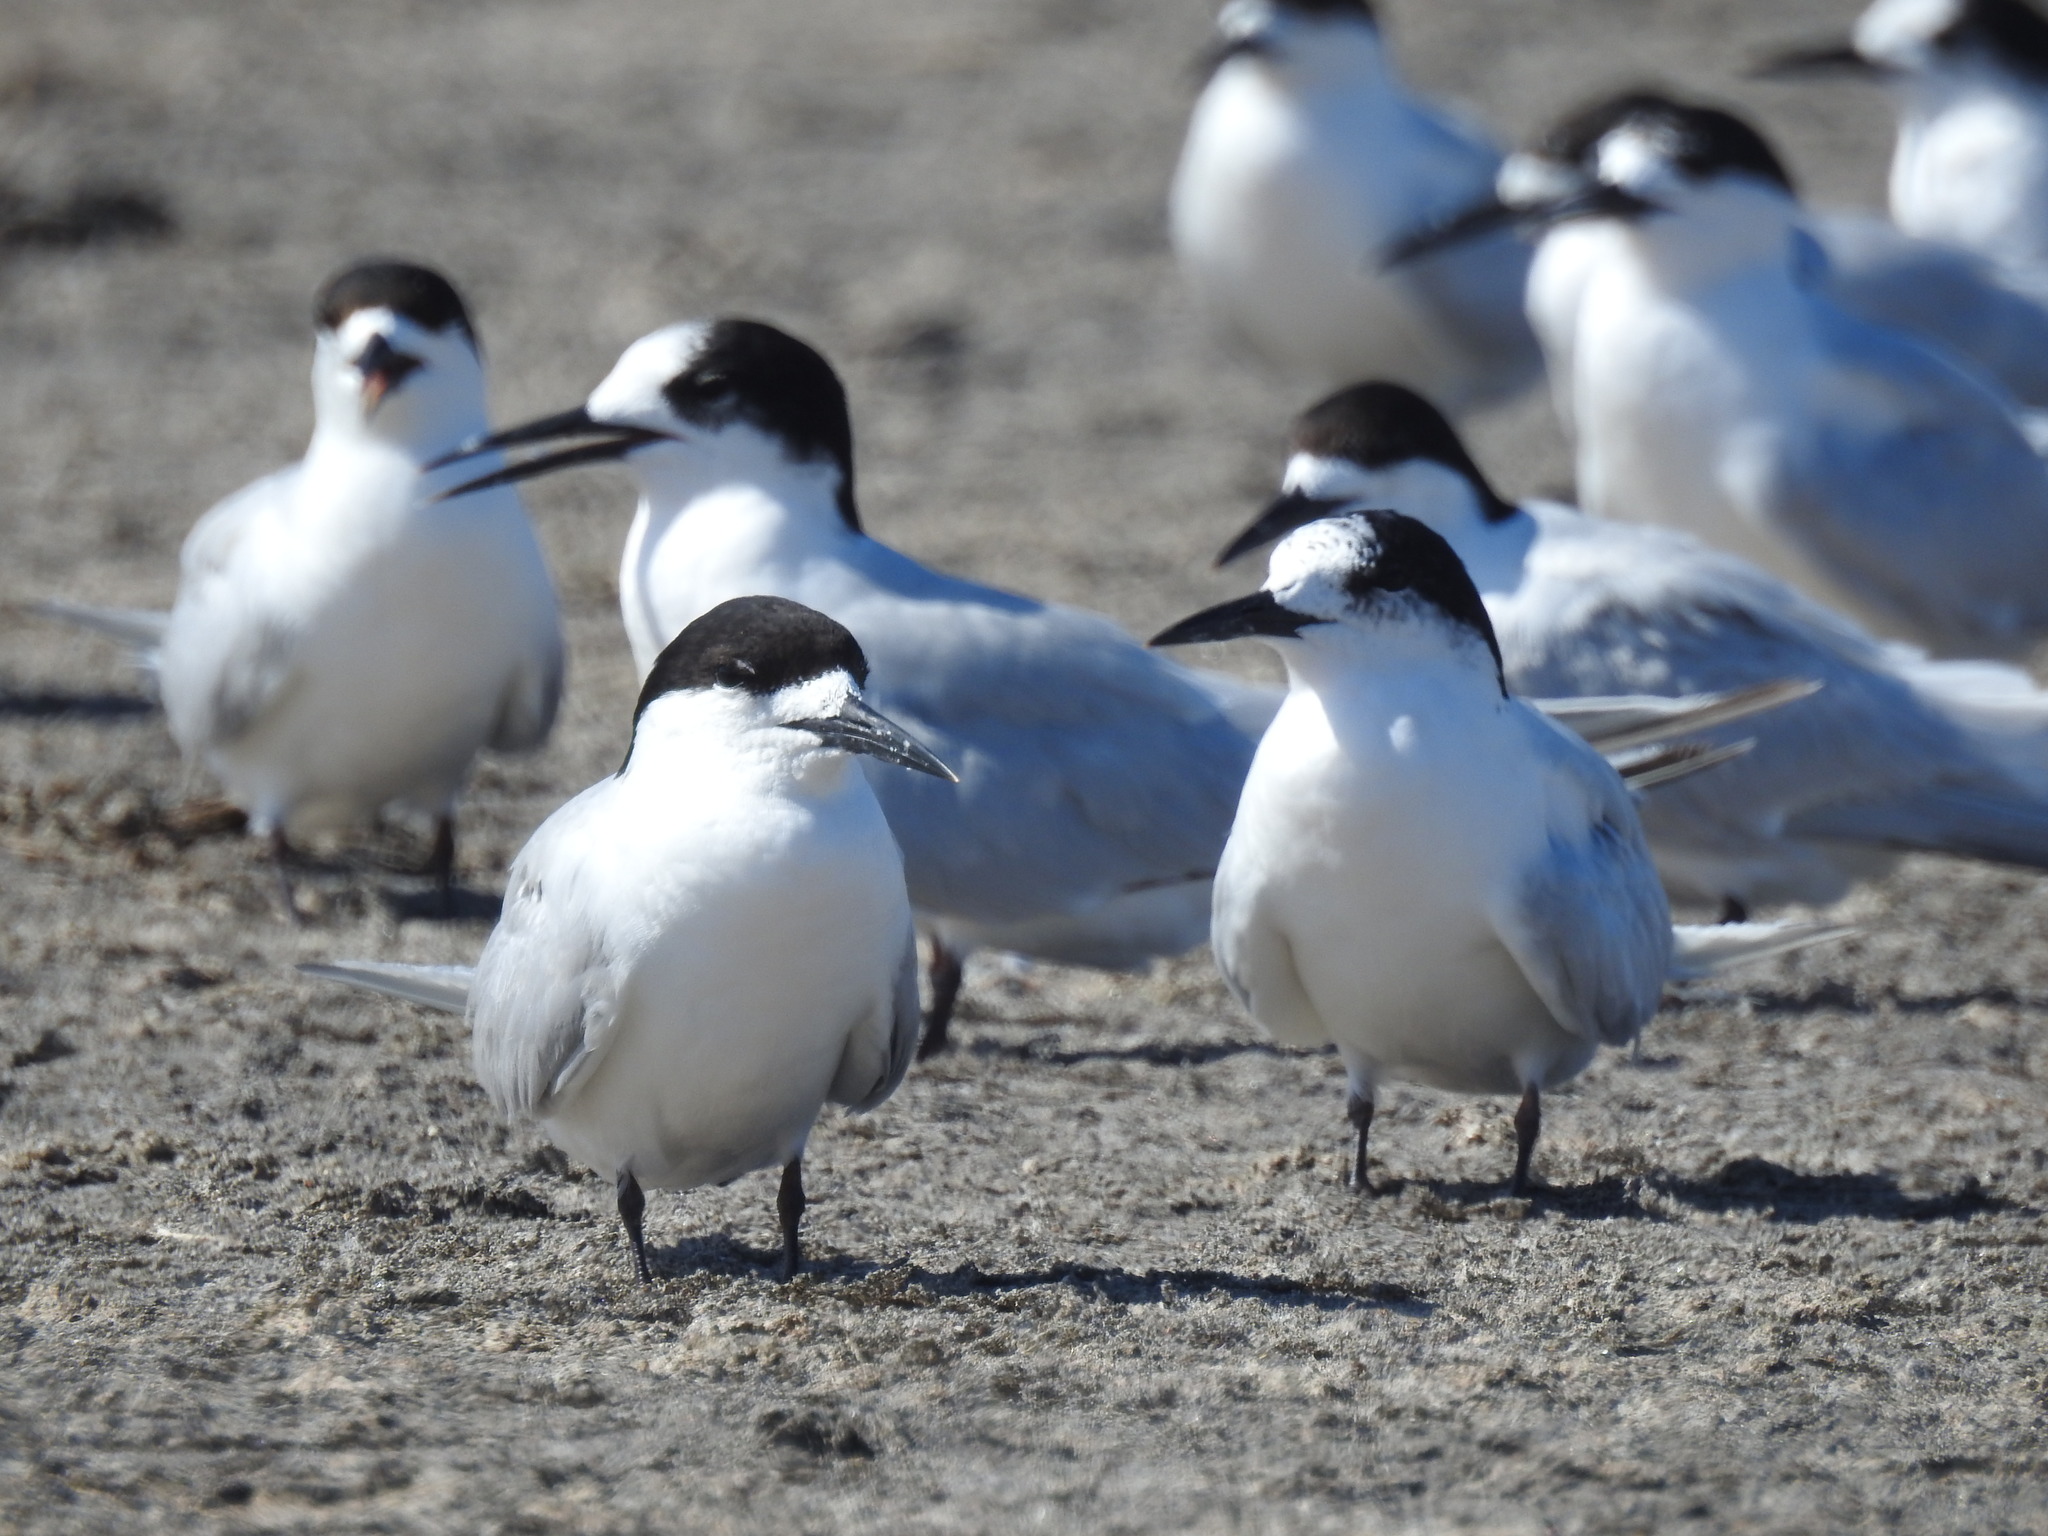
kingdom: Animalia
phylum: Chordata
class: Aves
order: Charadriiformes
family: Laridae
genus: Sterna
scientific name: Sterna striata
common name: White-fronted tern
